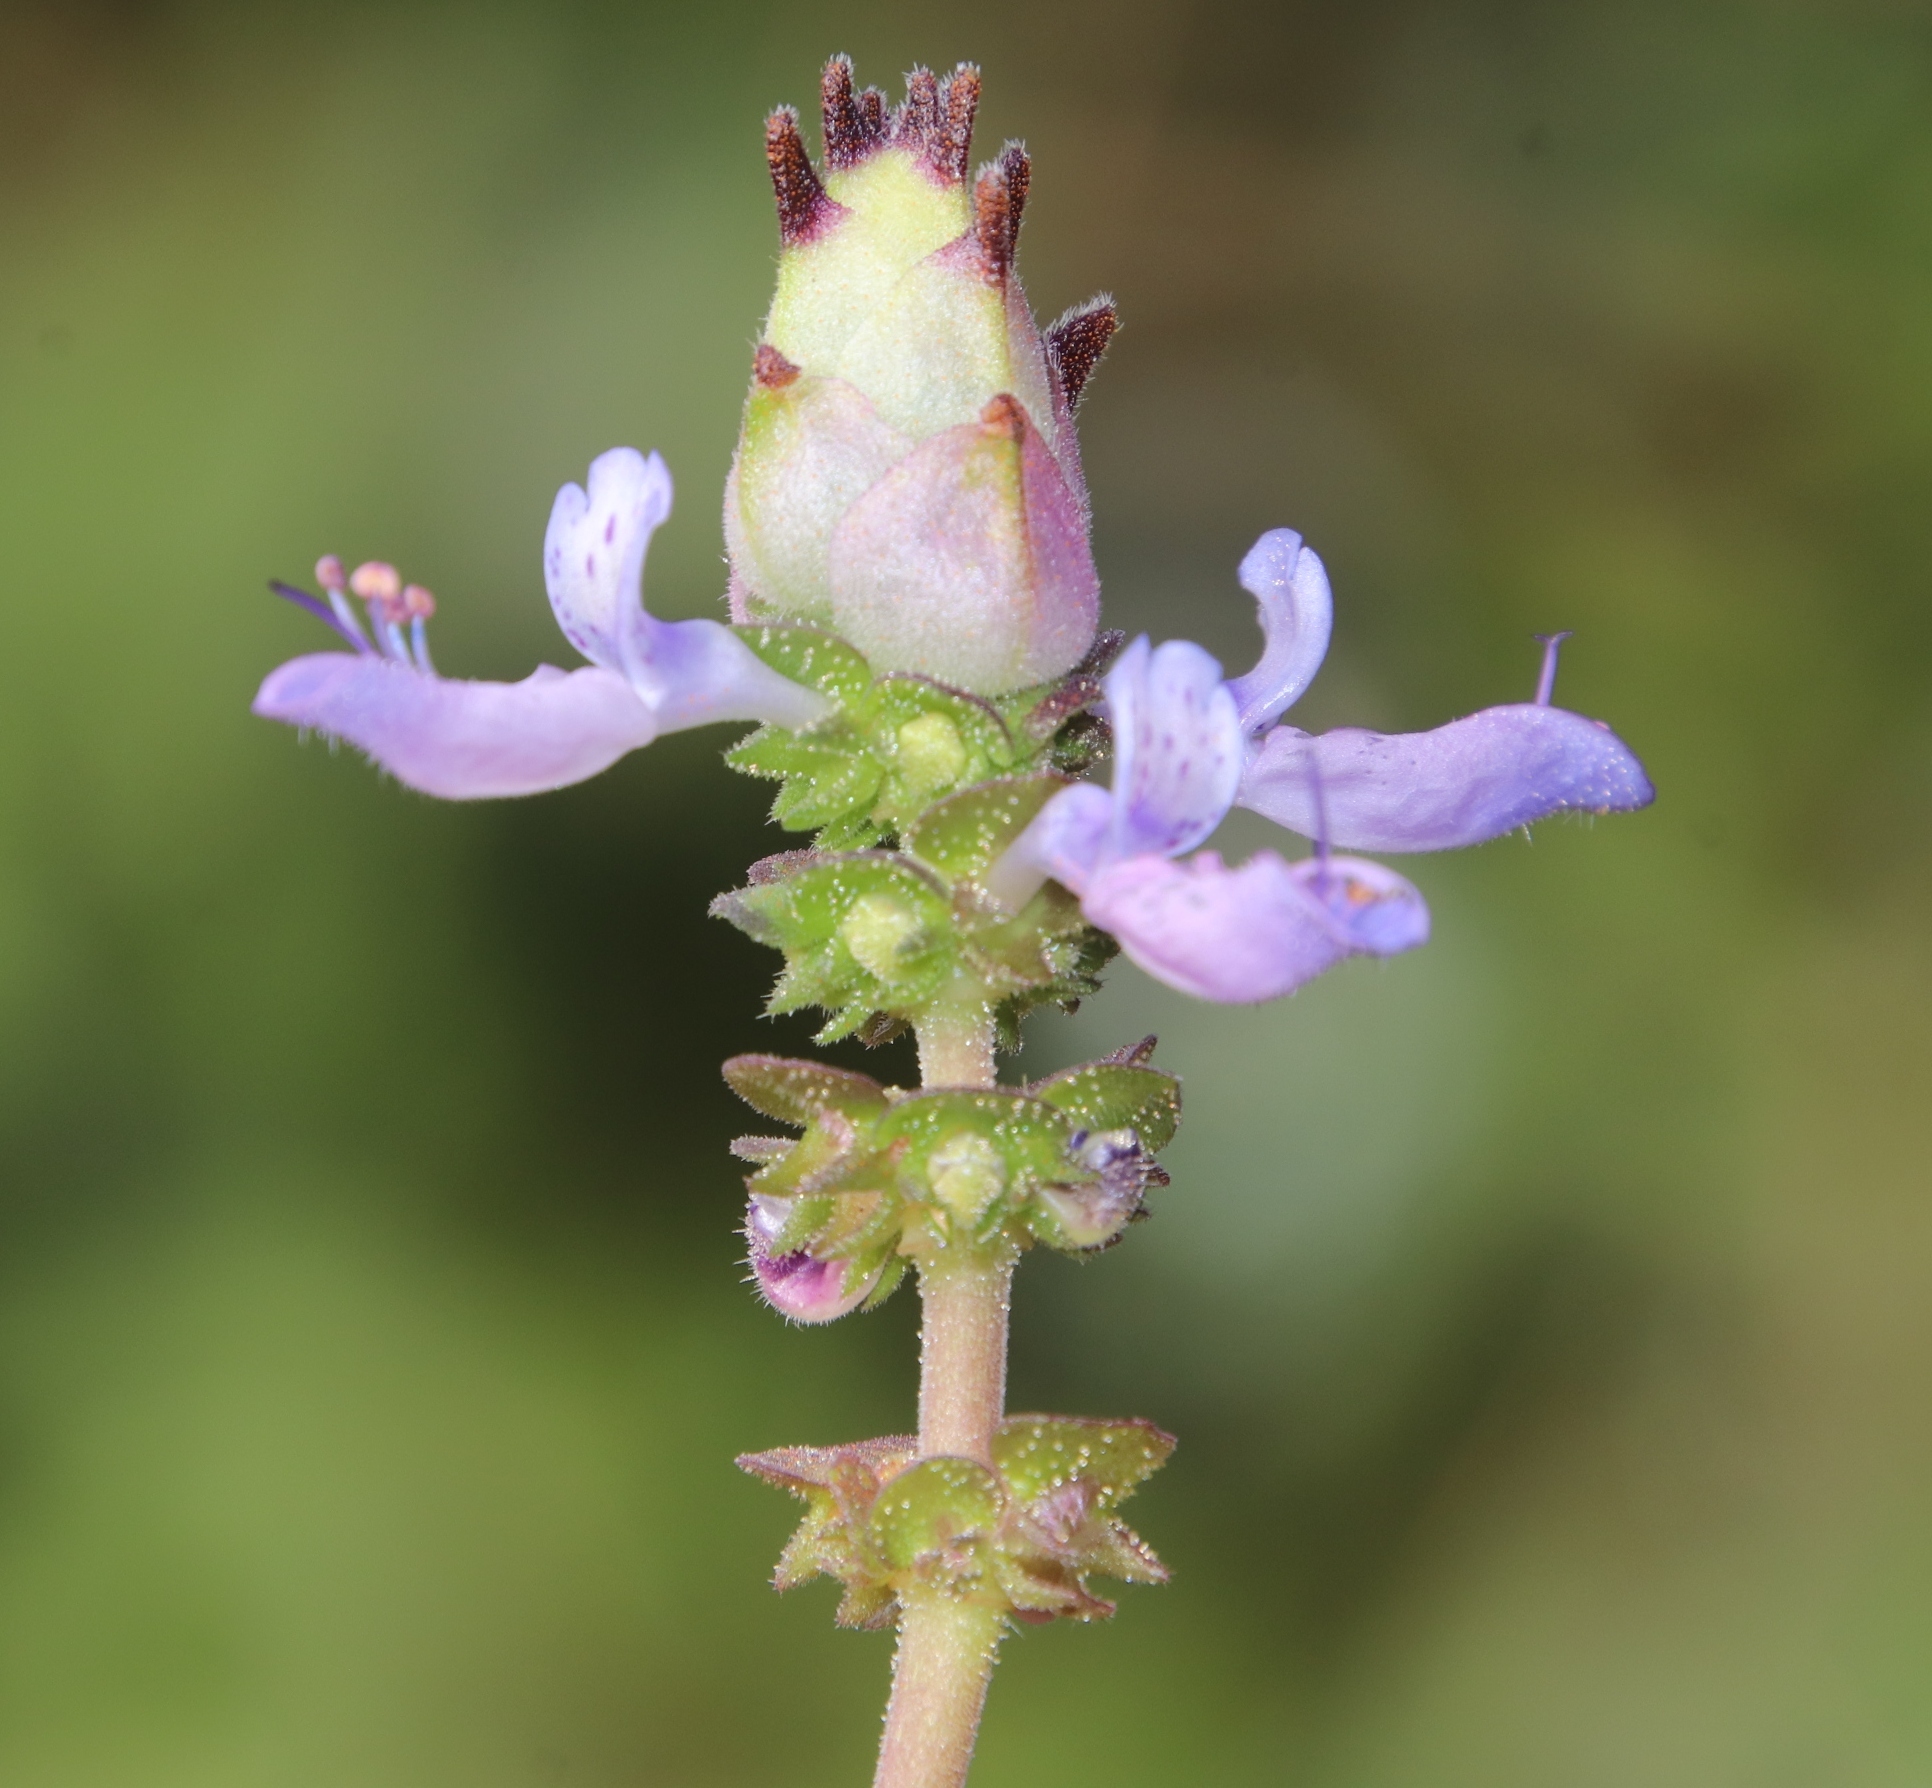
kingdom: Plantae
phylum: Tracheophyta
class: Magnoliopsida
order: Lamiales
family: Lamiaceae
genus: Coleus
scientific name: Coleus neochilus
